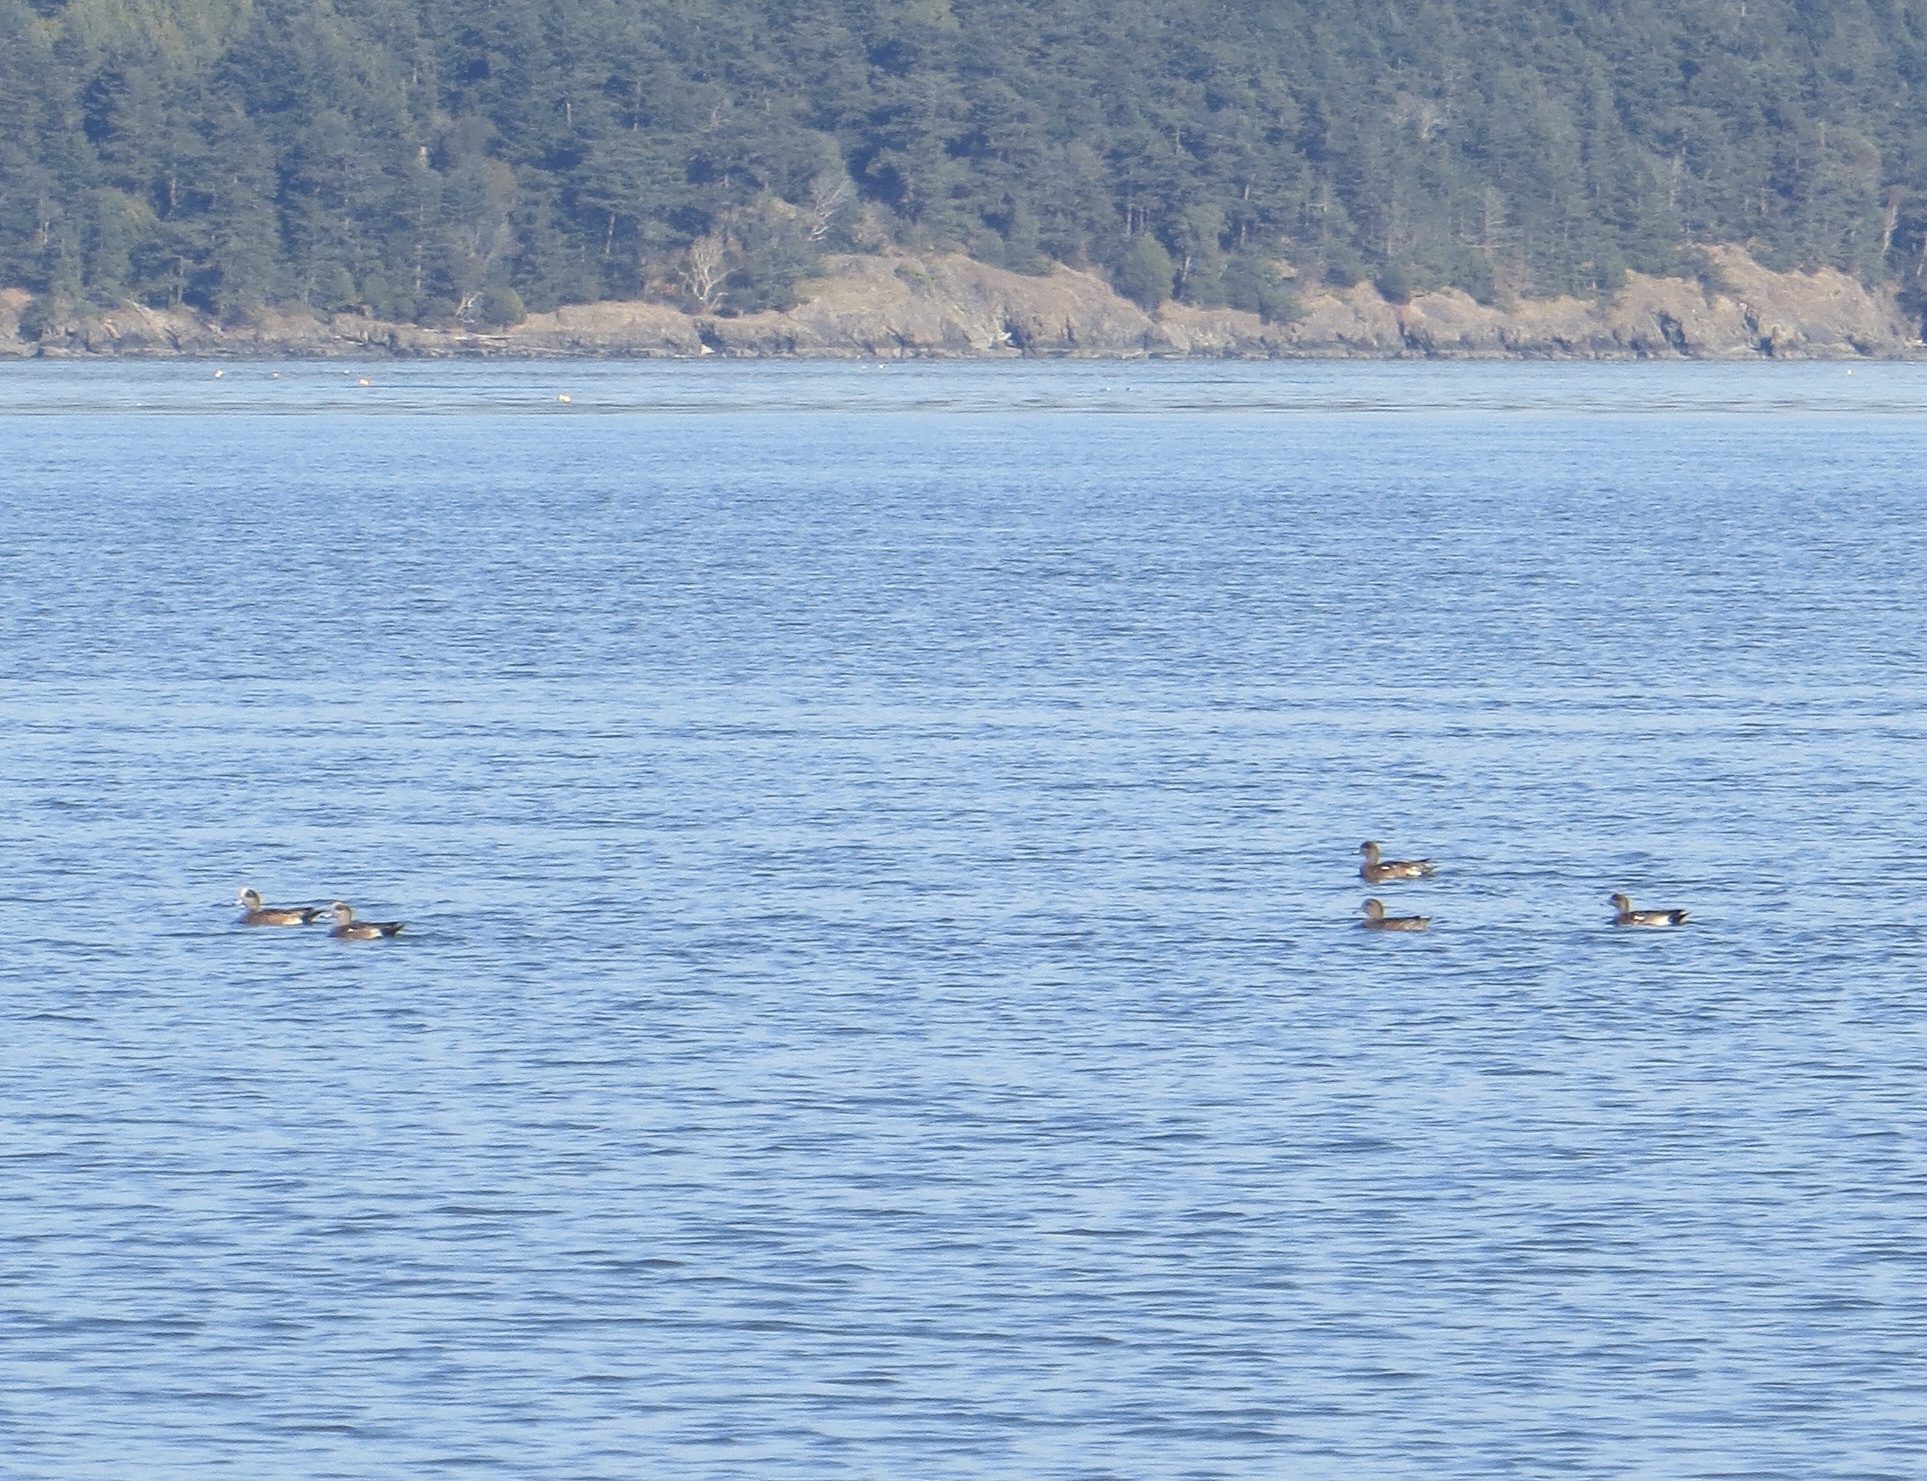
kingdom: Animalia
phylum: Chordata
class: Aves
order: Anseriformes
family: Anatidae
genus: Mareca
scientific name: Mareca americana
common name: American wigeon
